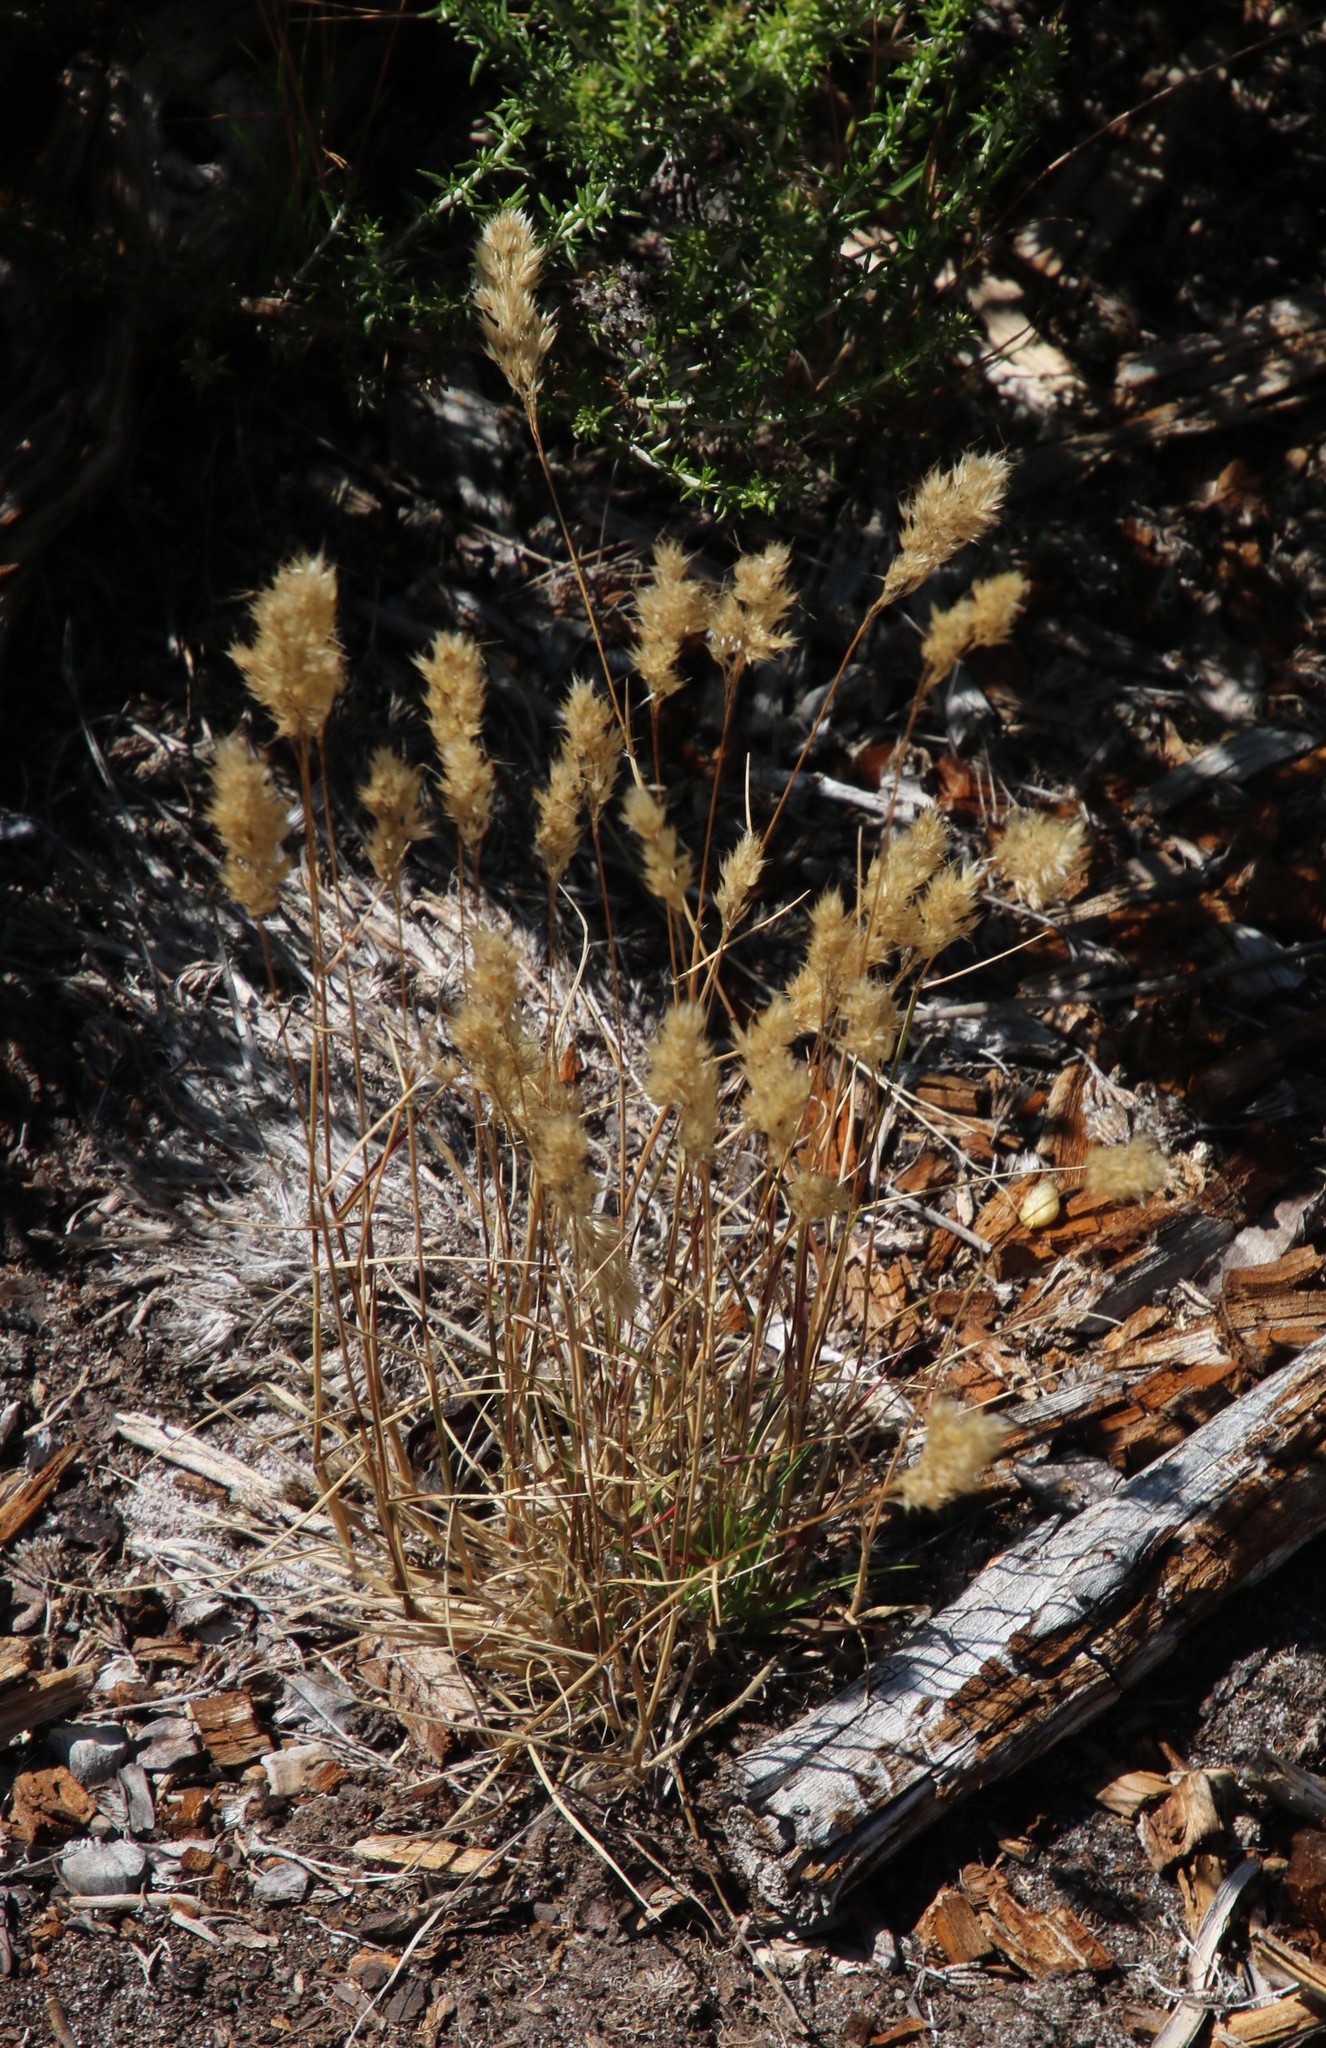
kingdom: Plantae
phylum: Tracheophyta
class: Liliopsida
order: Poales
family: Poaceae
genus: Pentameris
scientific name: Pentameris pallida
